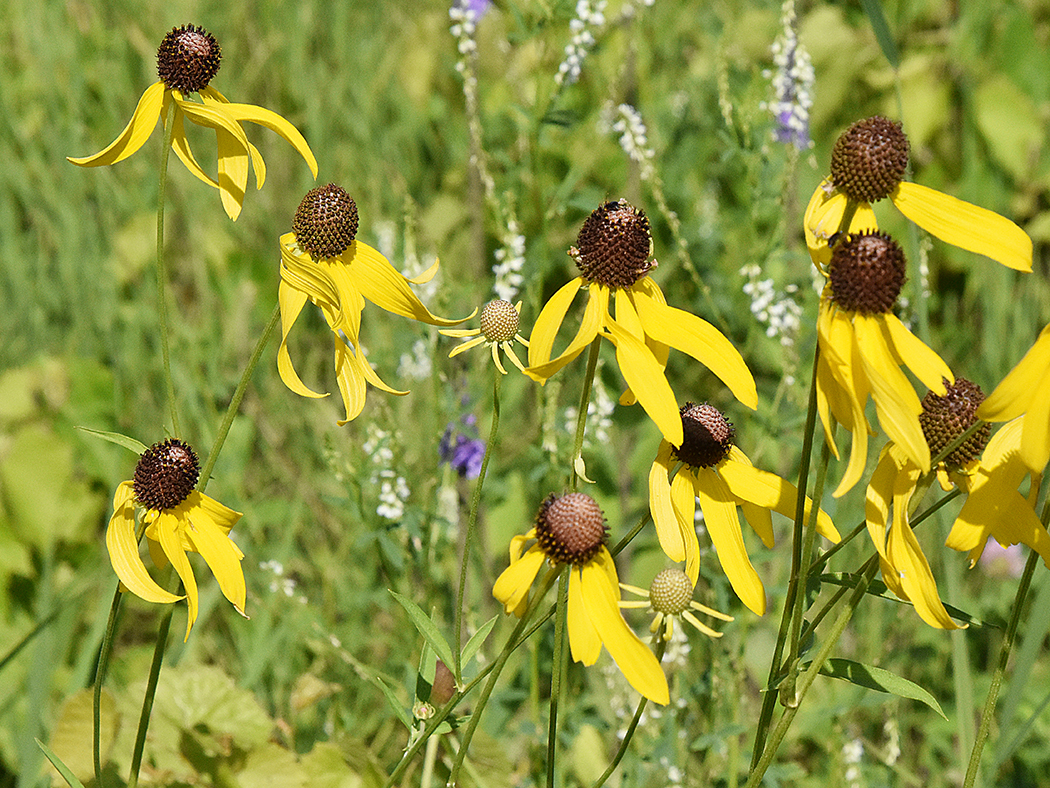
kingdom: Plantae
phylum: Tracheophyta
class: Magnoliopsida
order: Asterales
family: Asteraceae
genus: Ratibida
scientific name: Ratibida pinnata
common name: Drooping prairie-coneflower
